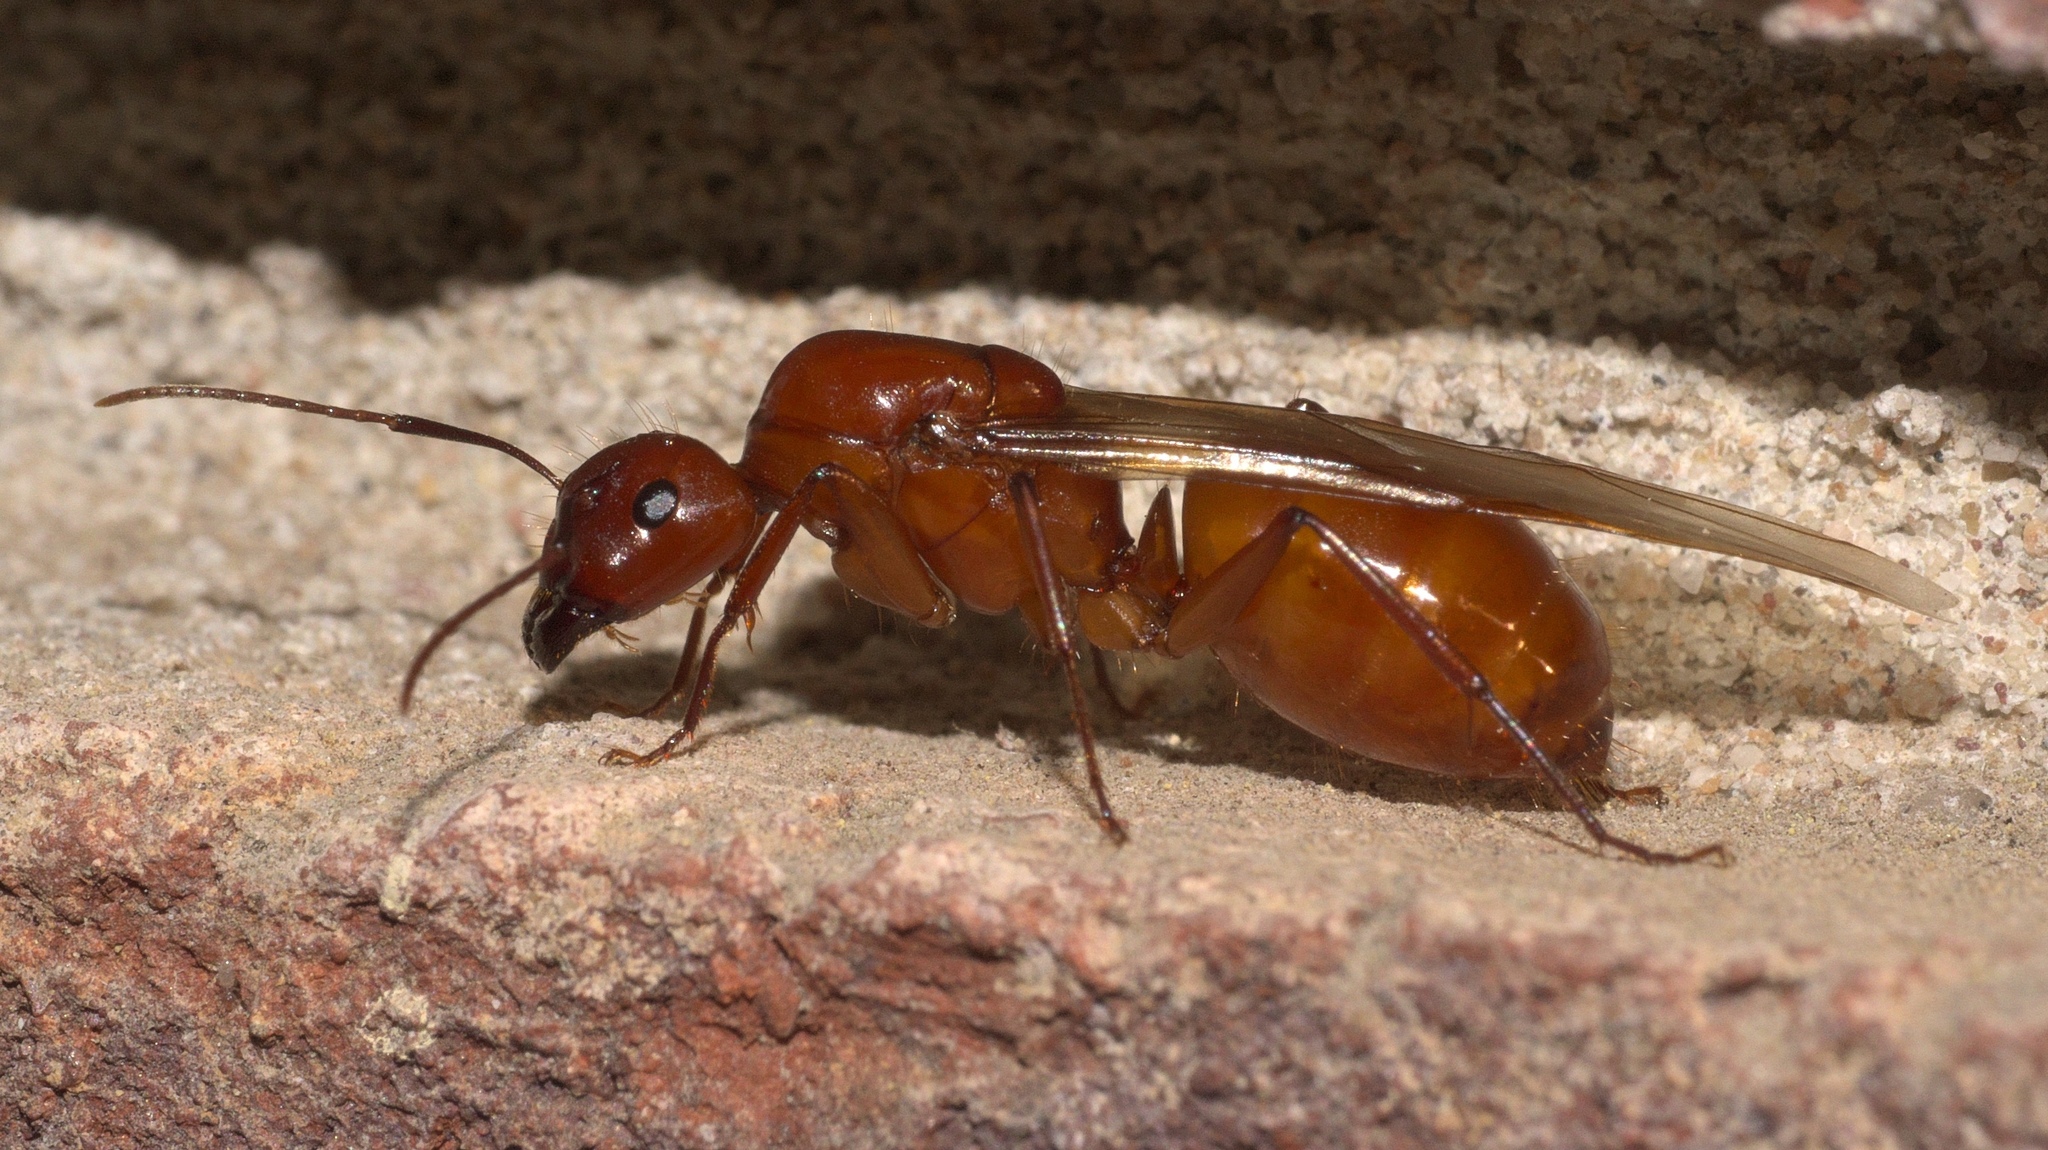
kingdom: Animalia
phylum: Arthropoda
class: Insecta
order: Hymenoptera
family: Formicidae
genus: Camponotus
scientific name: Camponotus castaneus
